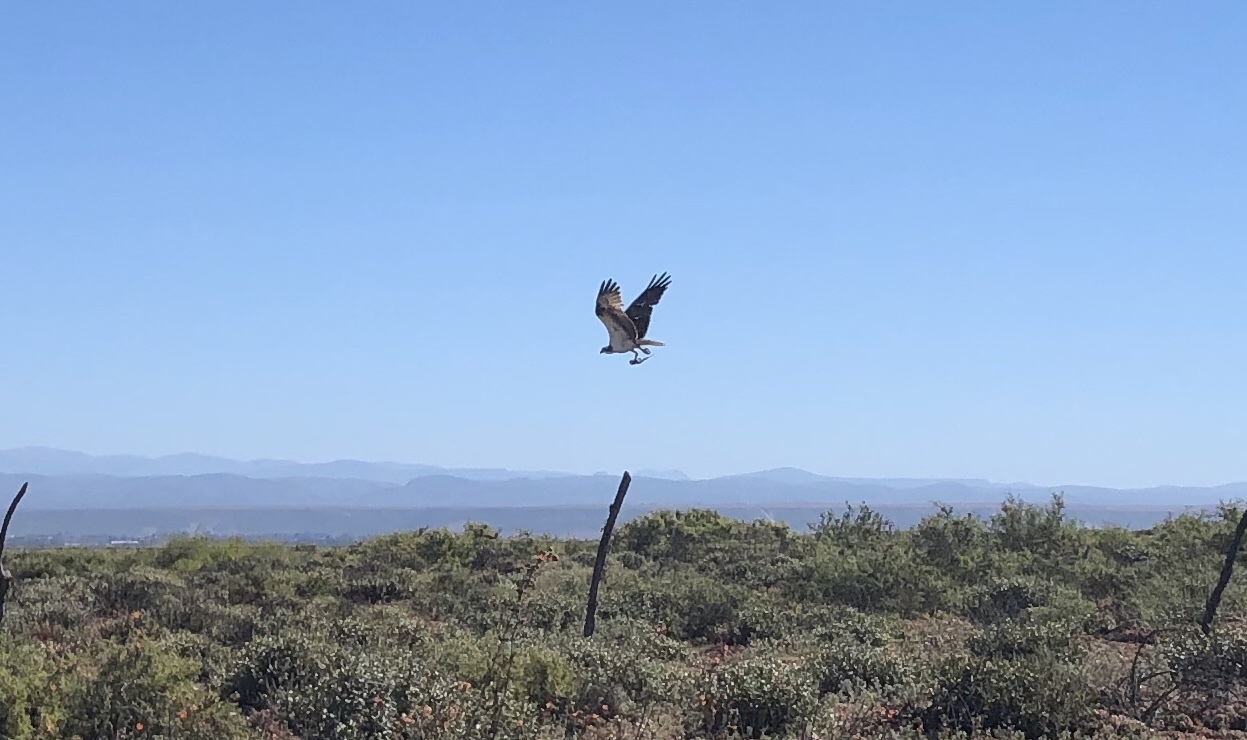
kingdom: Animalia
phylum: Chordata
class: Aves
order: Accipitriformes
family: Pandionidae
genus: Pandion
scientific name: Pandion haliaetus
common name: Osprey
